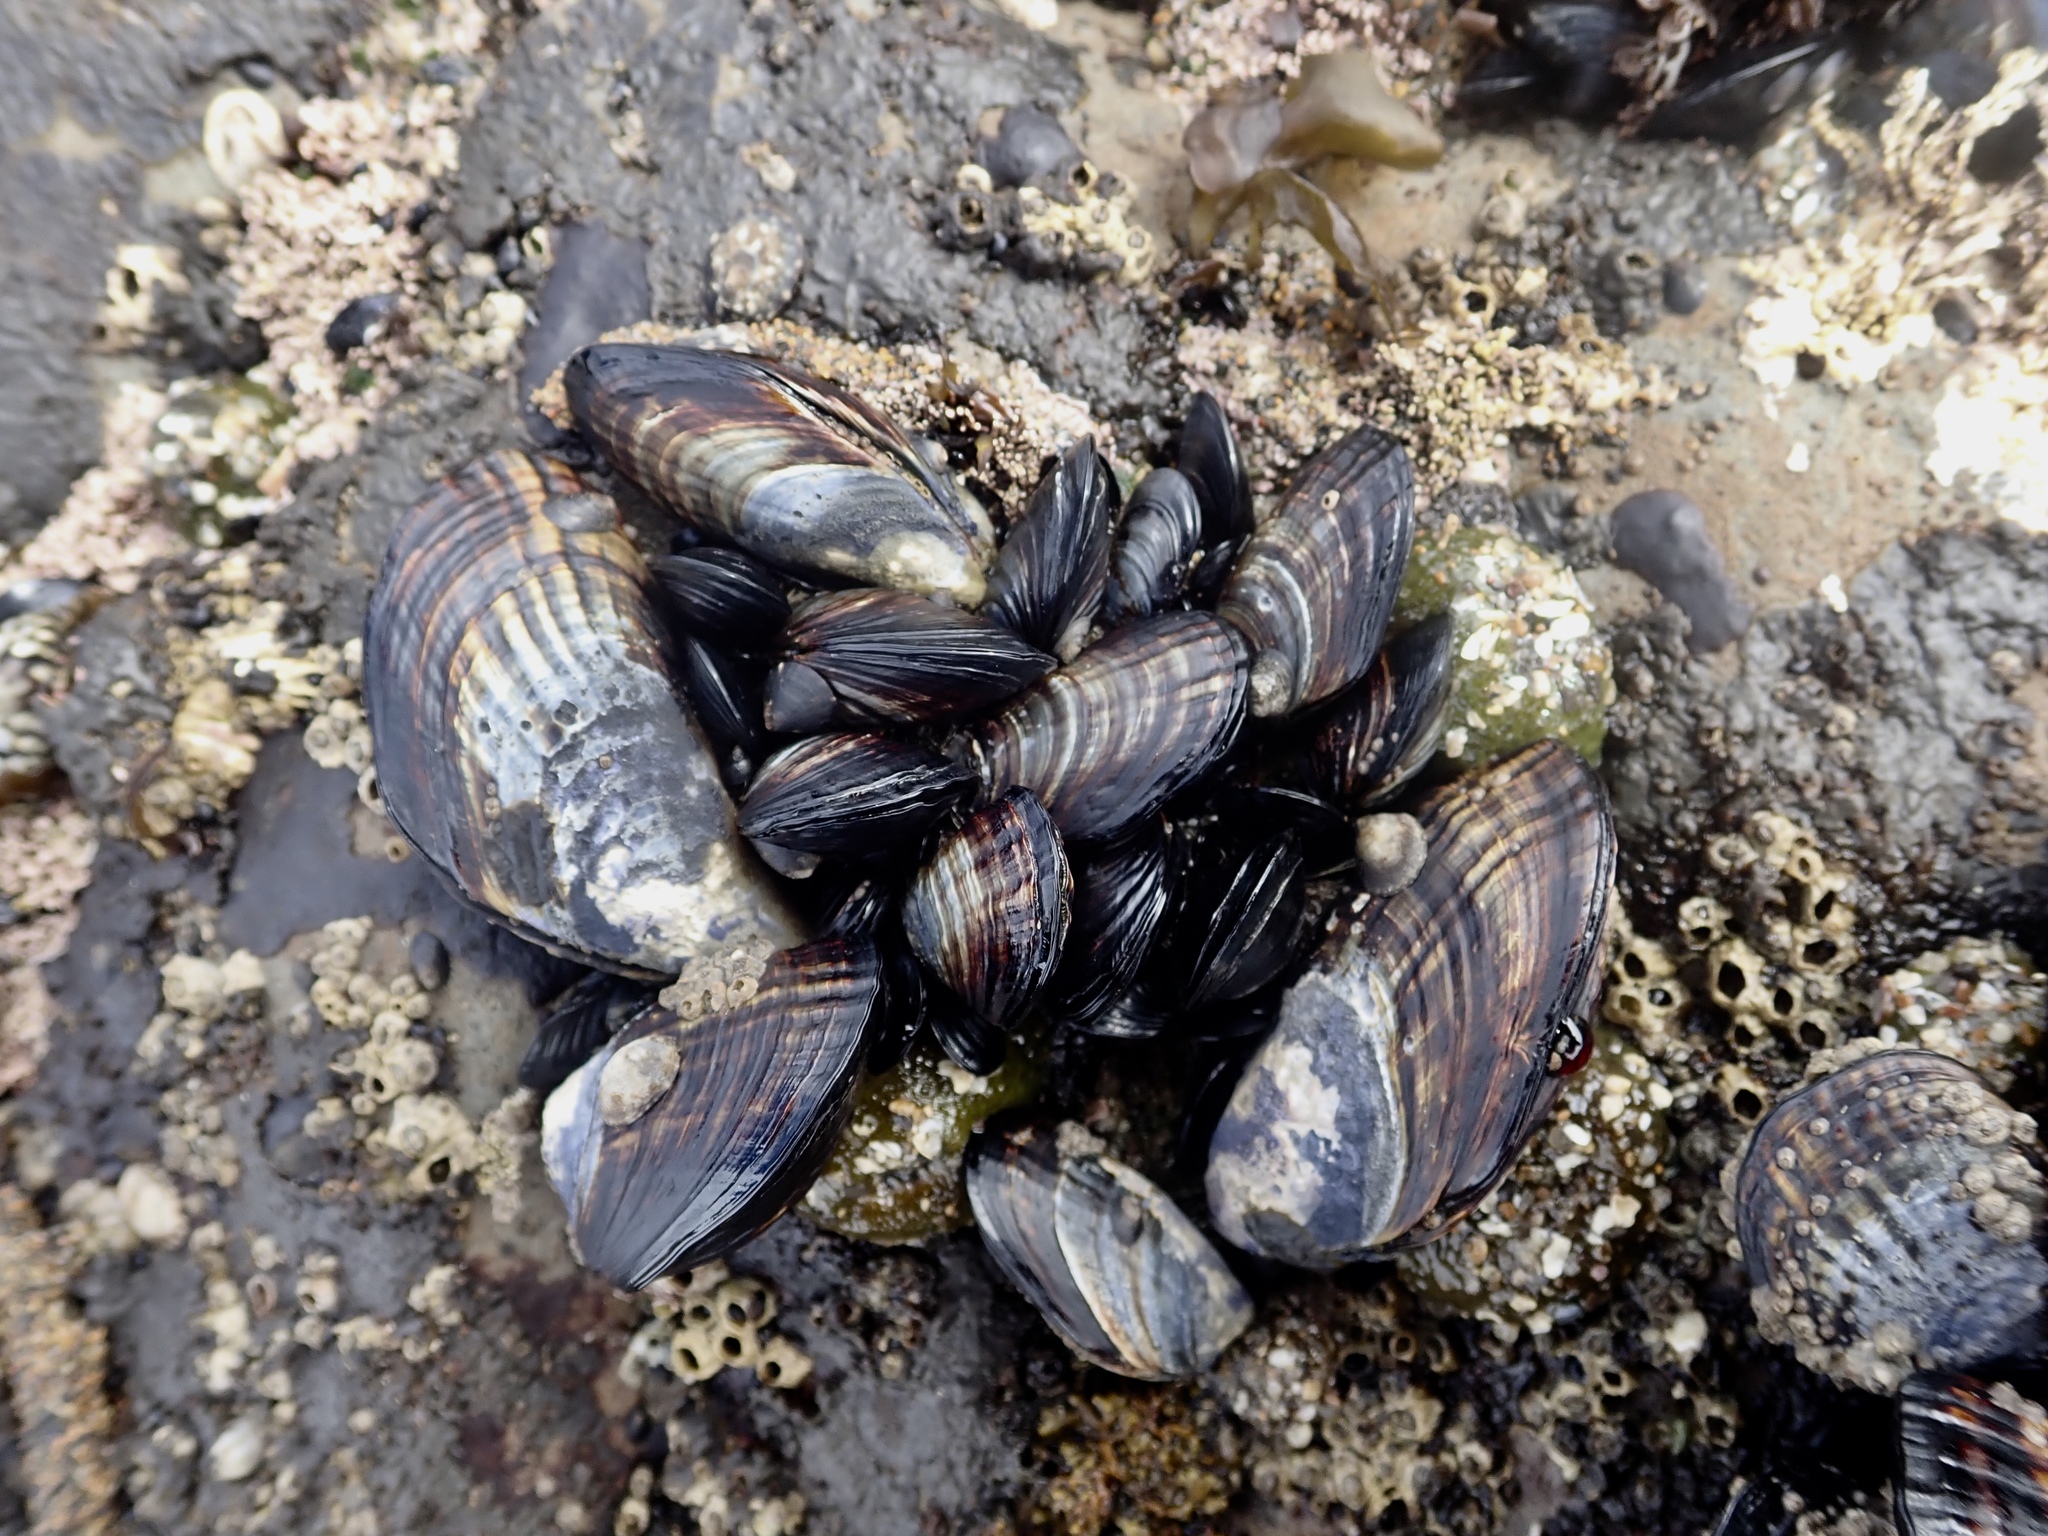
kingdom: Animalia
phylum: Mollusca
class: Bivalvia
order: Mytilida
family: Mytilidae
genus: Mytilus
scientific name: Mytilus californianus
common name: California mussel
